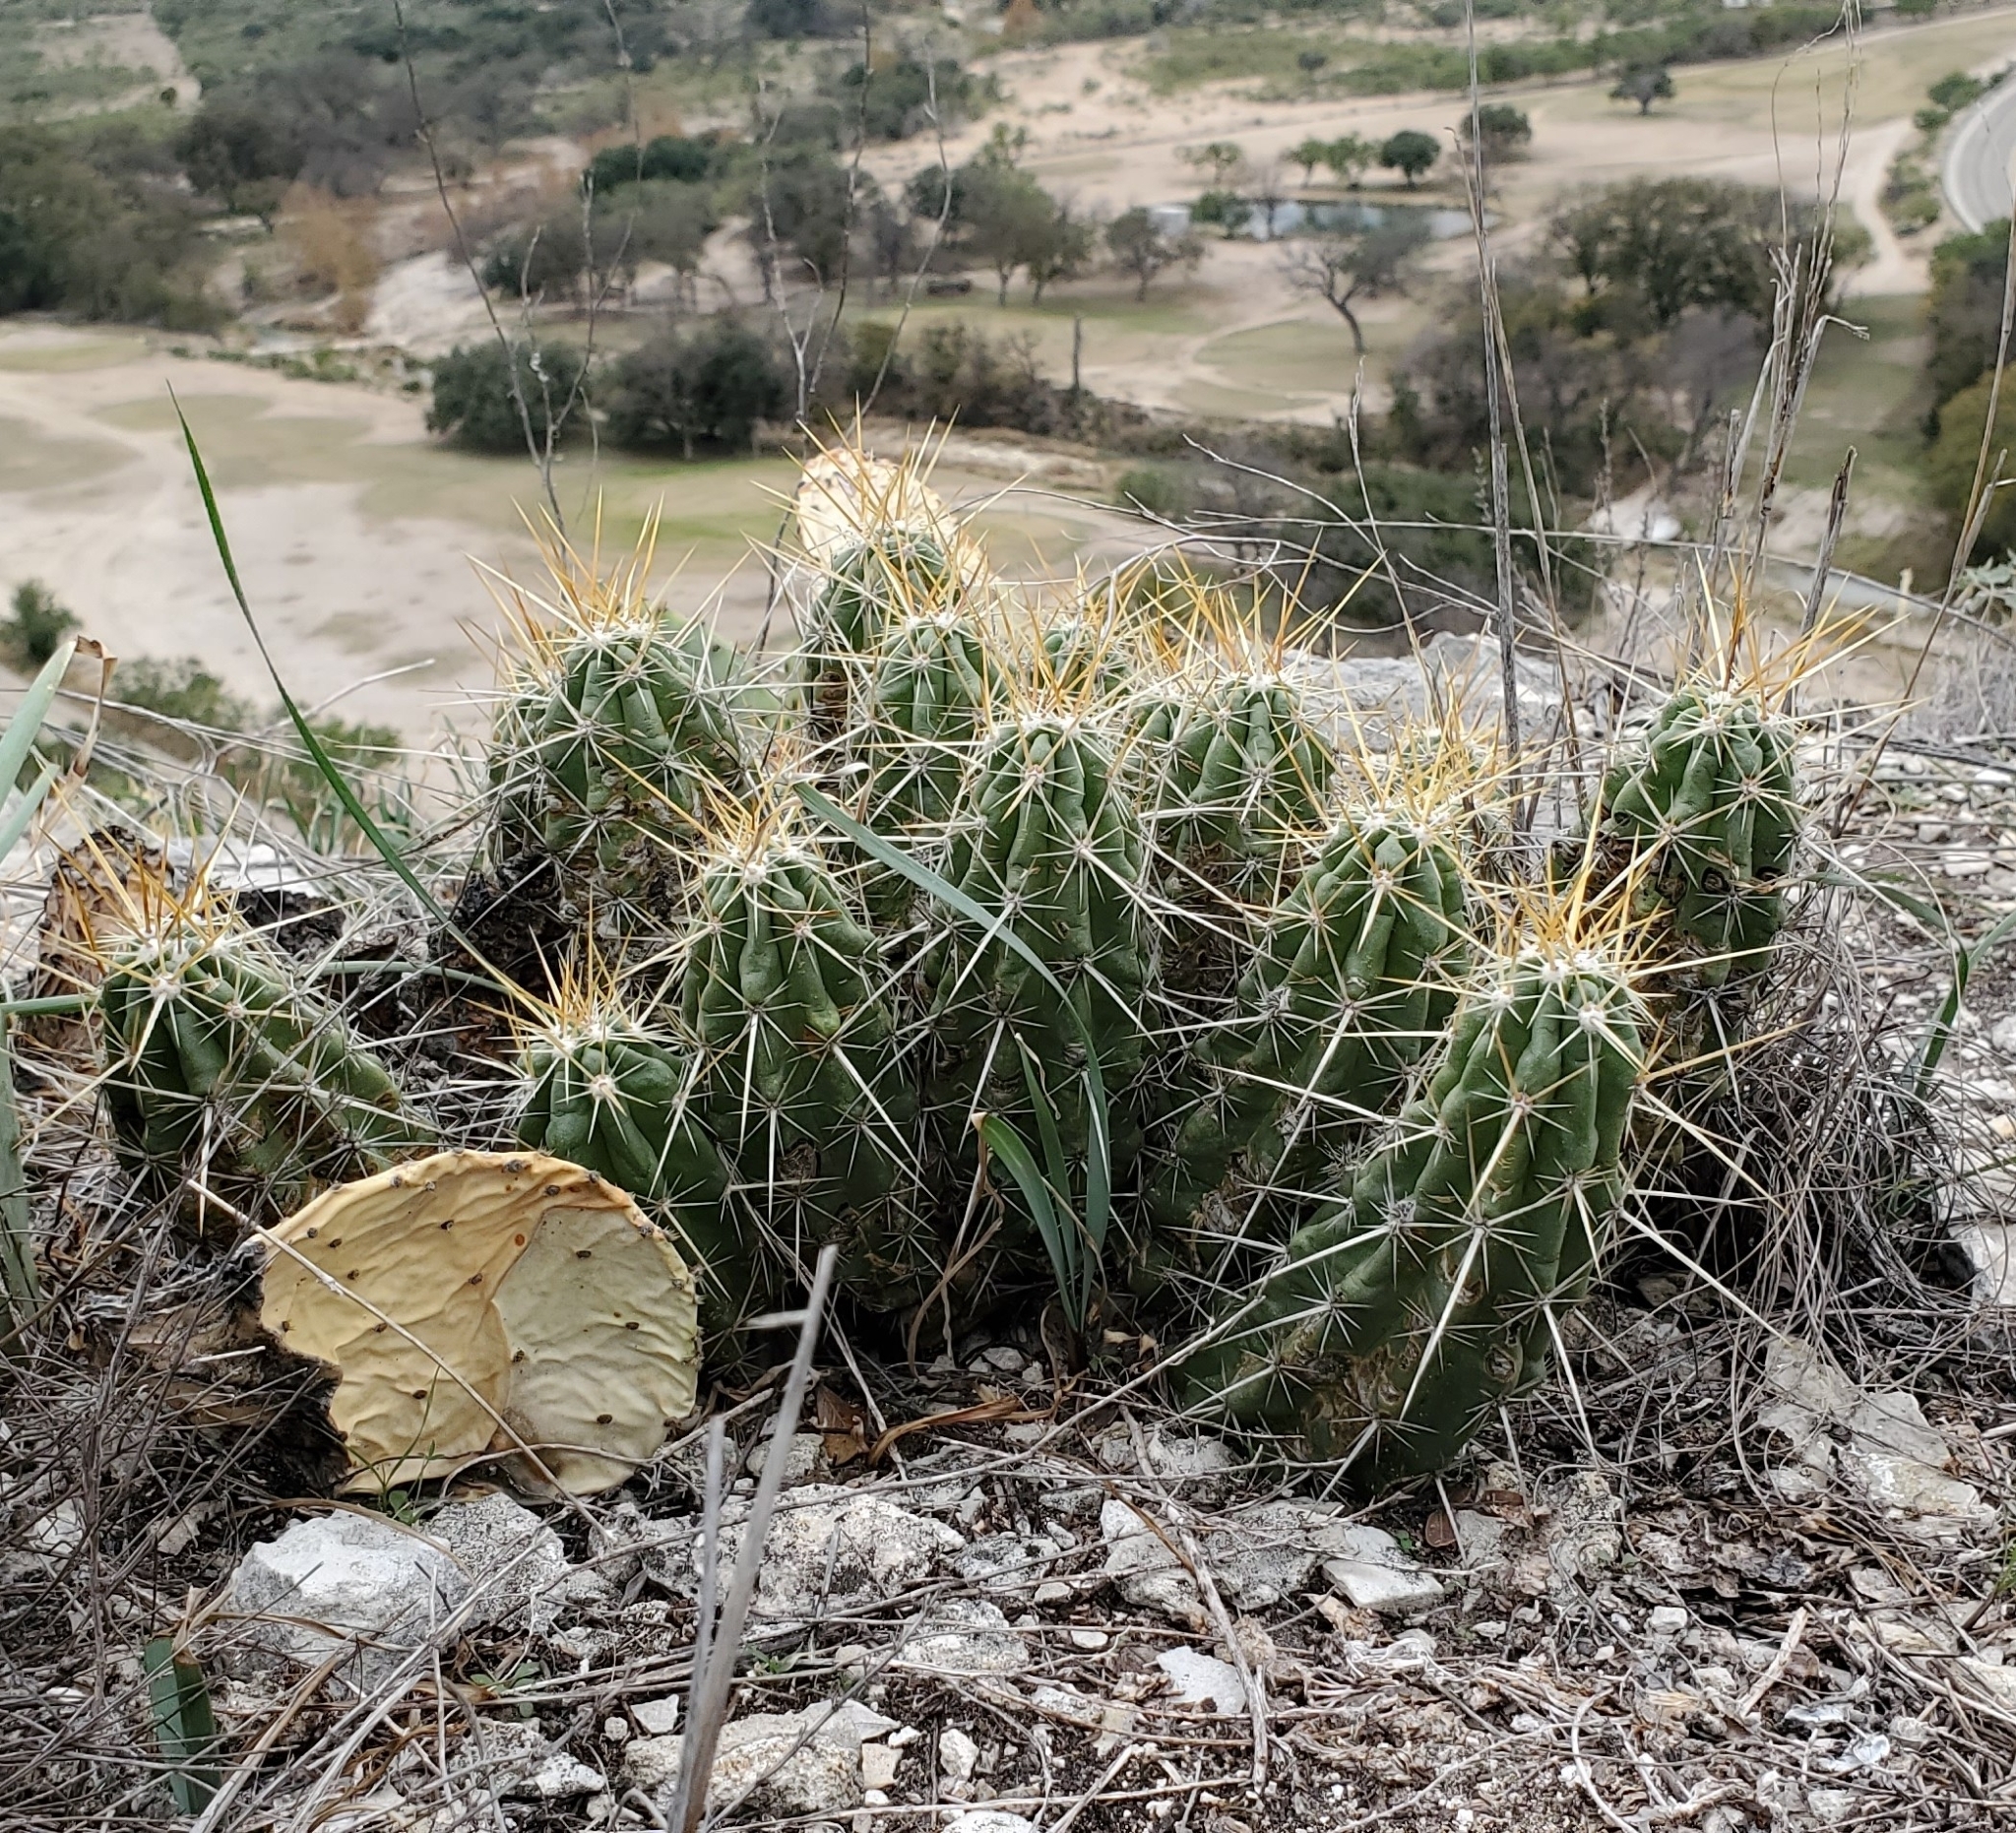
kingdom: Plantae
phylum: Tracheophyta
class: Magnoliopsida
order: Caryophyllales
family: Cactaceae
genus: Echinocereus
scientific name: Echinocereus enneacanthus
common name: Pitaya
